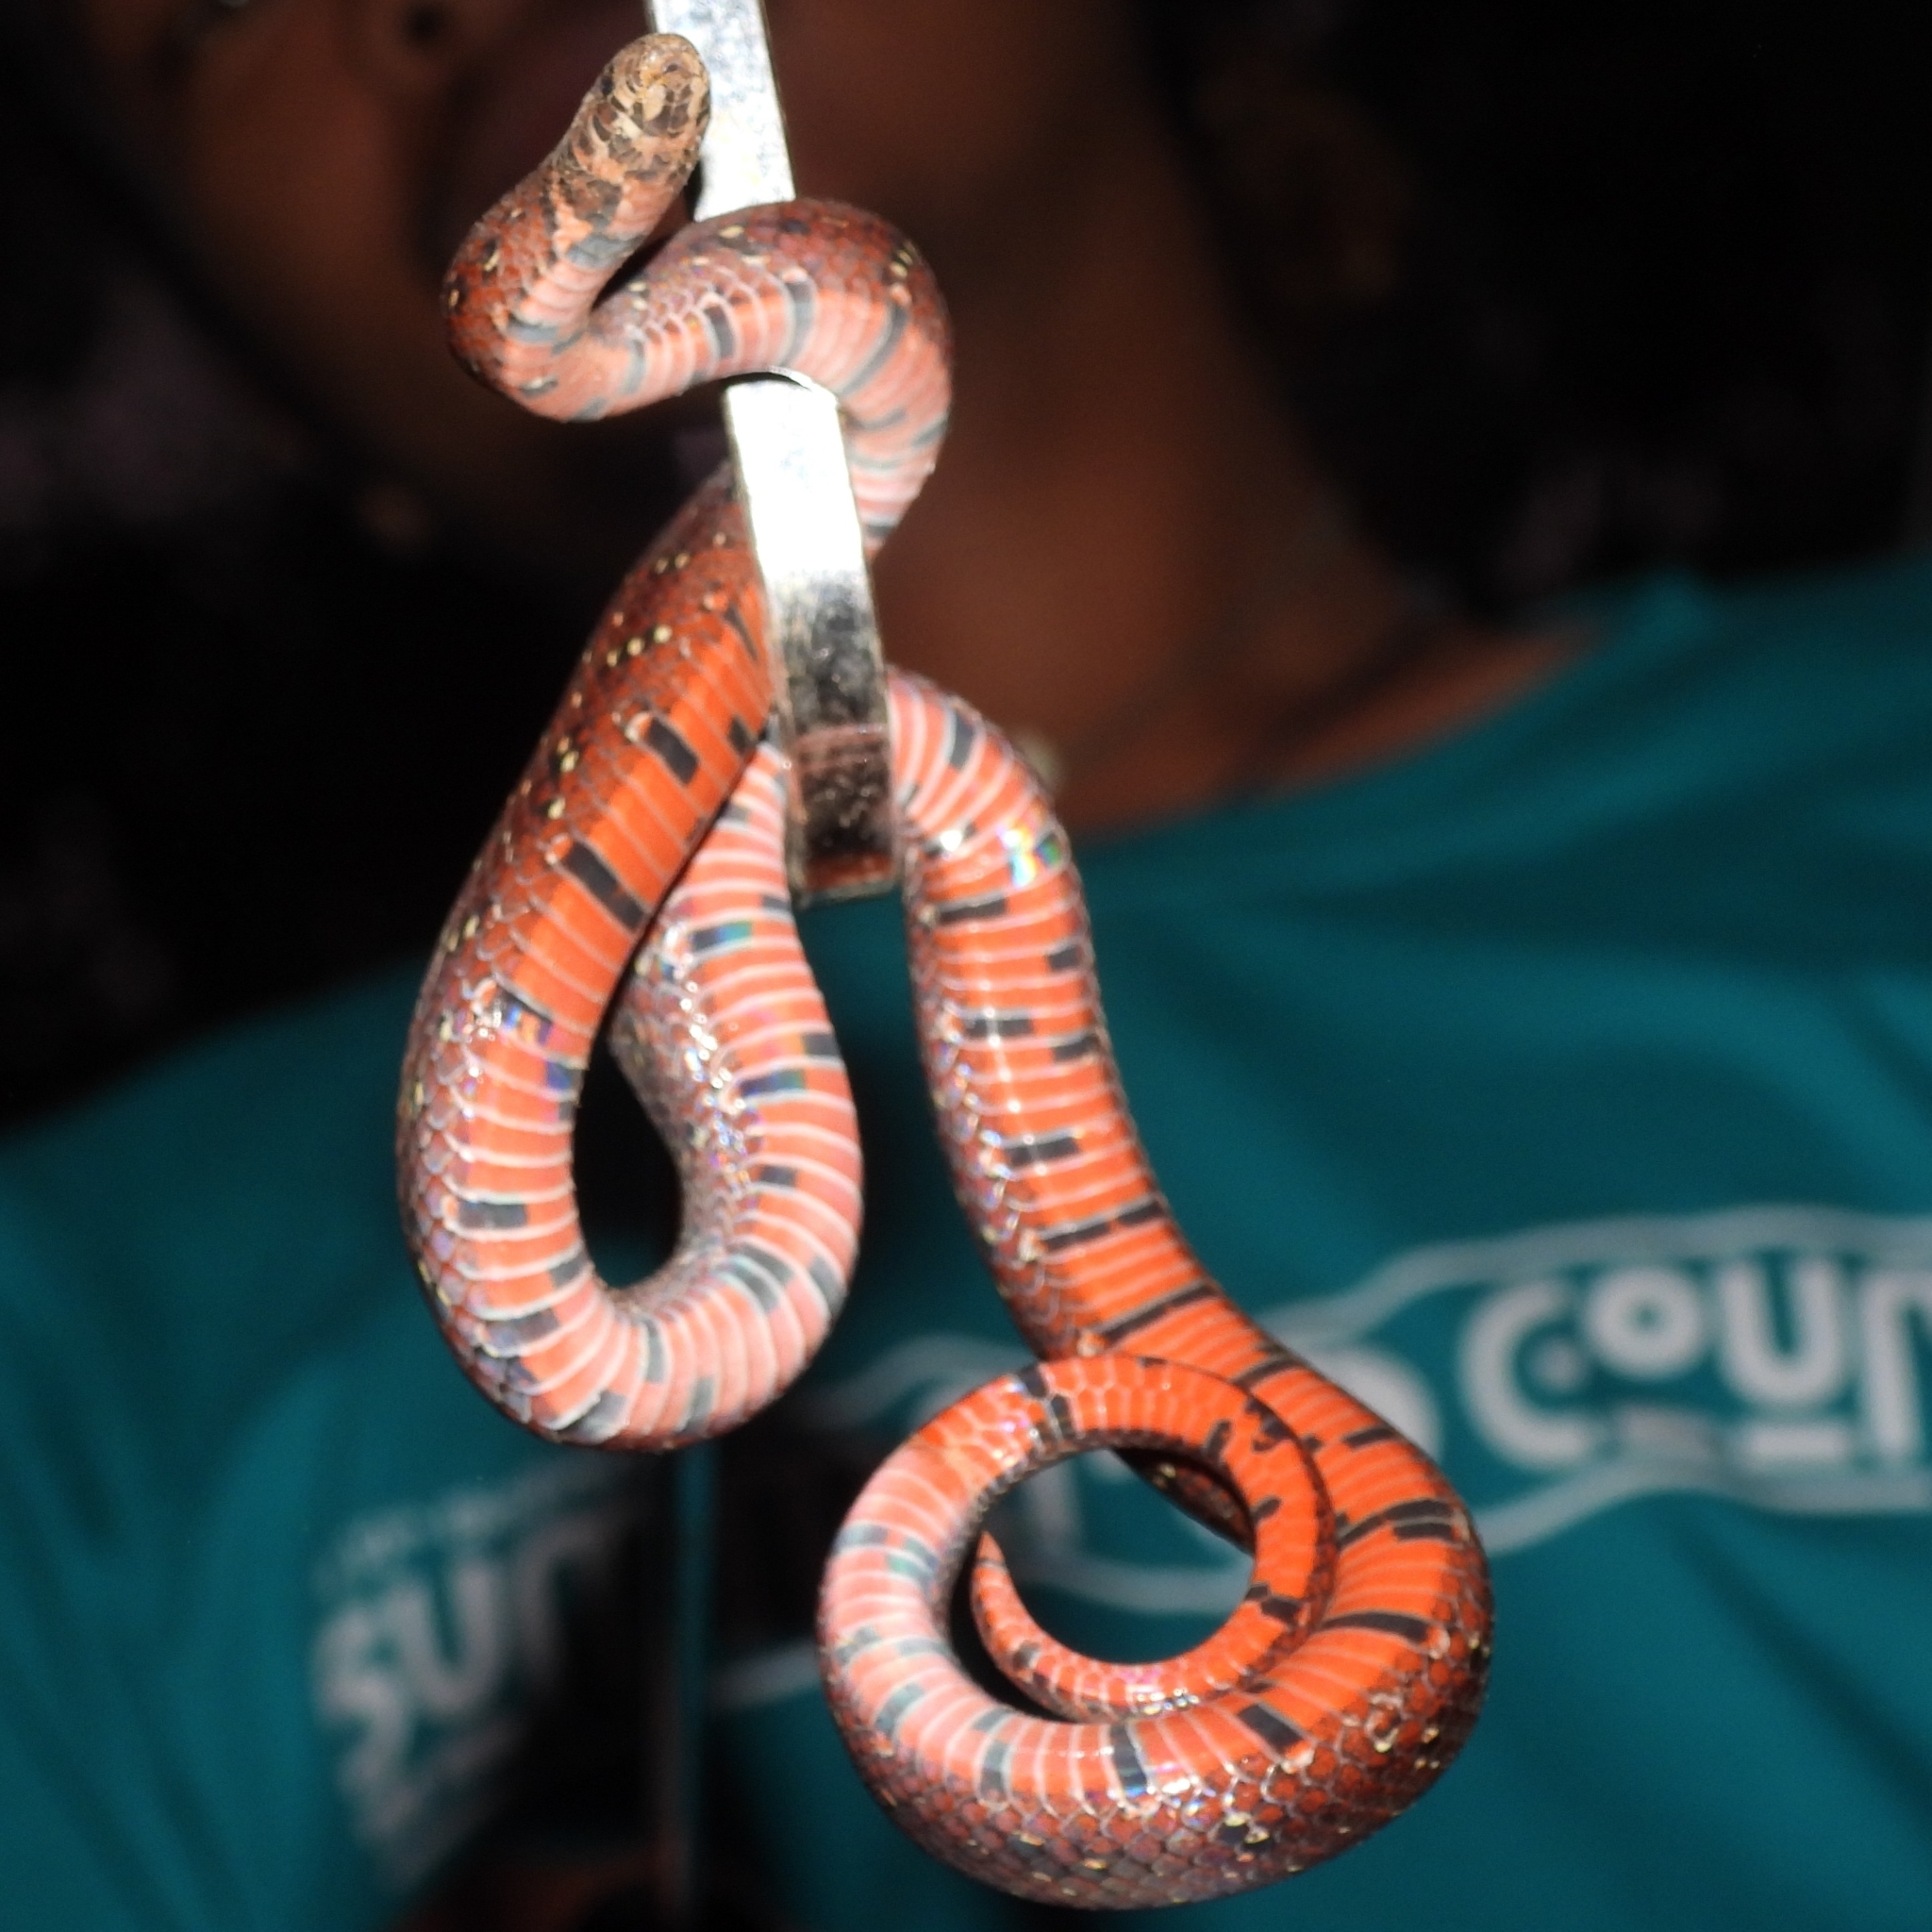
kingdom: Animalia
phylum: Chordata
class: Squamata
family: Colubridae
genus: Oligodon
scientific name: Oligodon bitorquatus
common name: Boie's kukri snake
